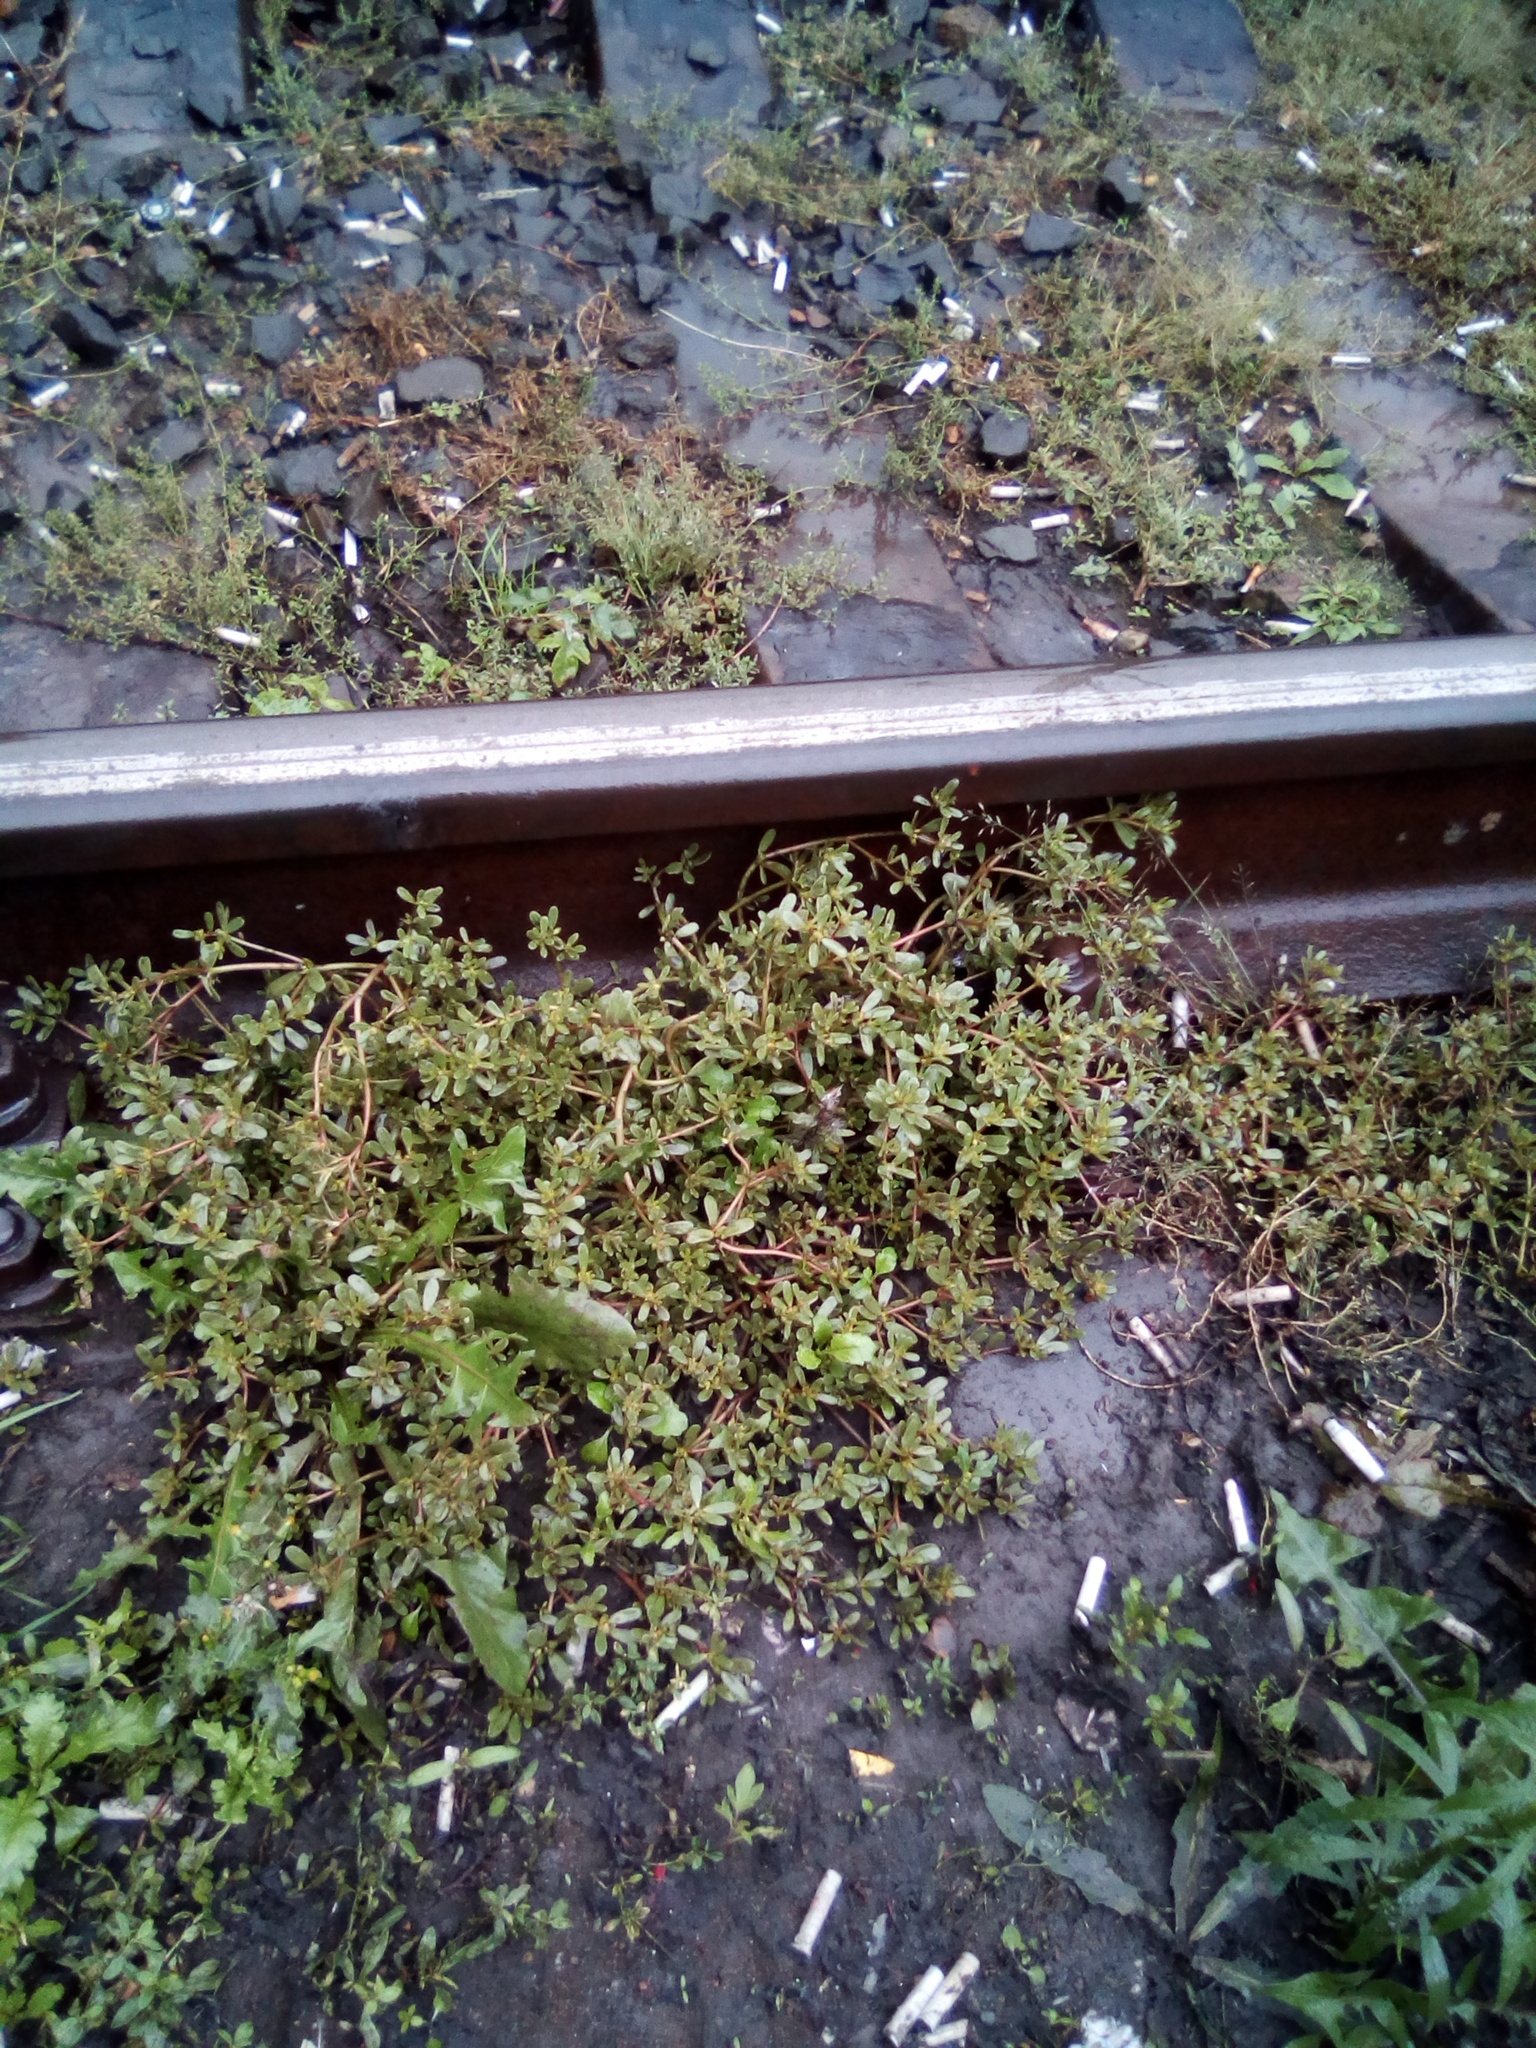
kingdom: Plantae
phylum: Tracheophyta
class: Magnoliopsida
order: Caryophyllales
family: Portulacaceae
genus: Portulaca
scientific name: Portulaca oleracea
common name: Common purslane
